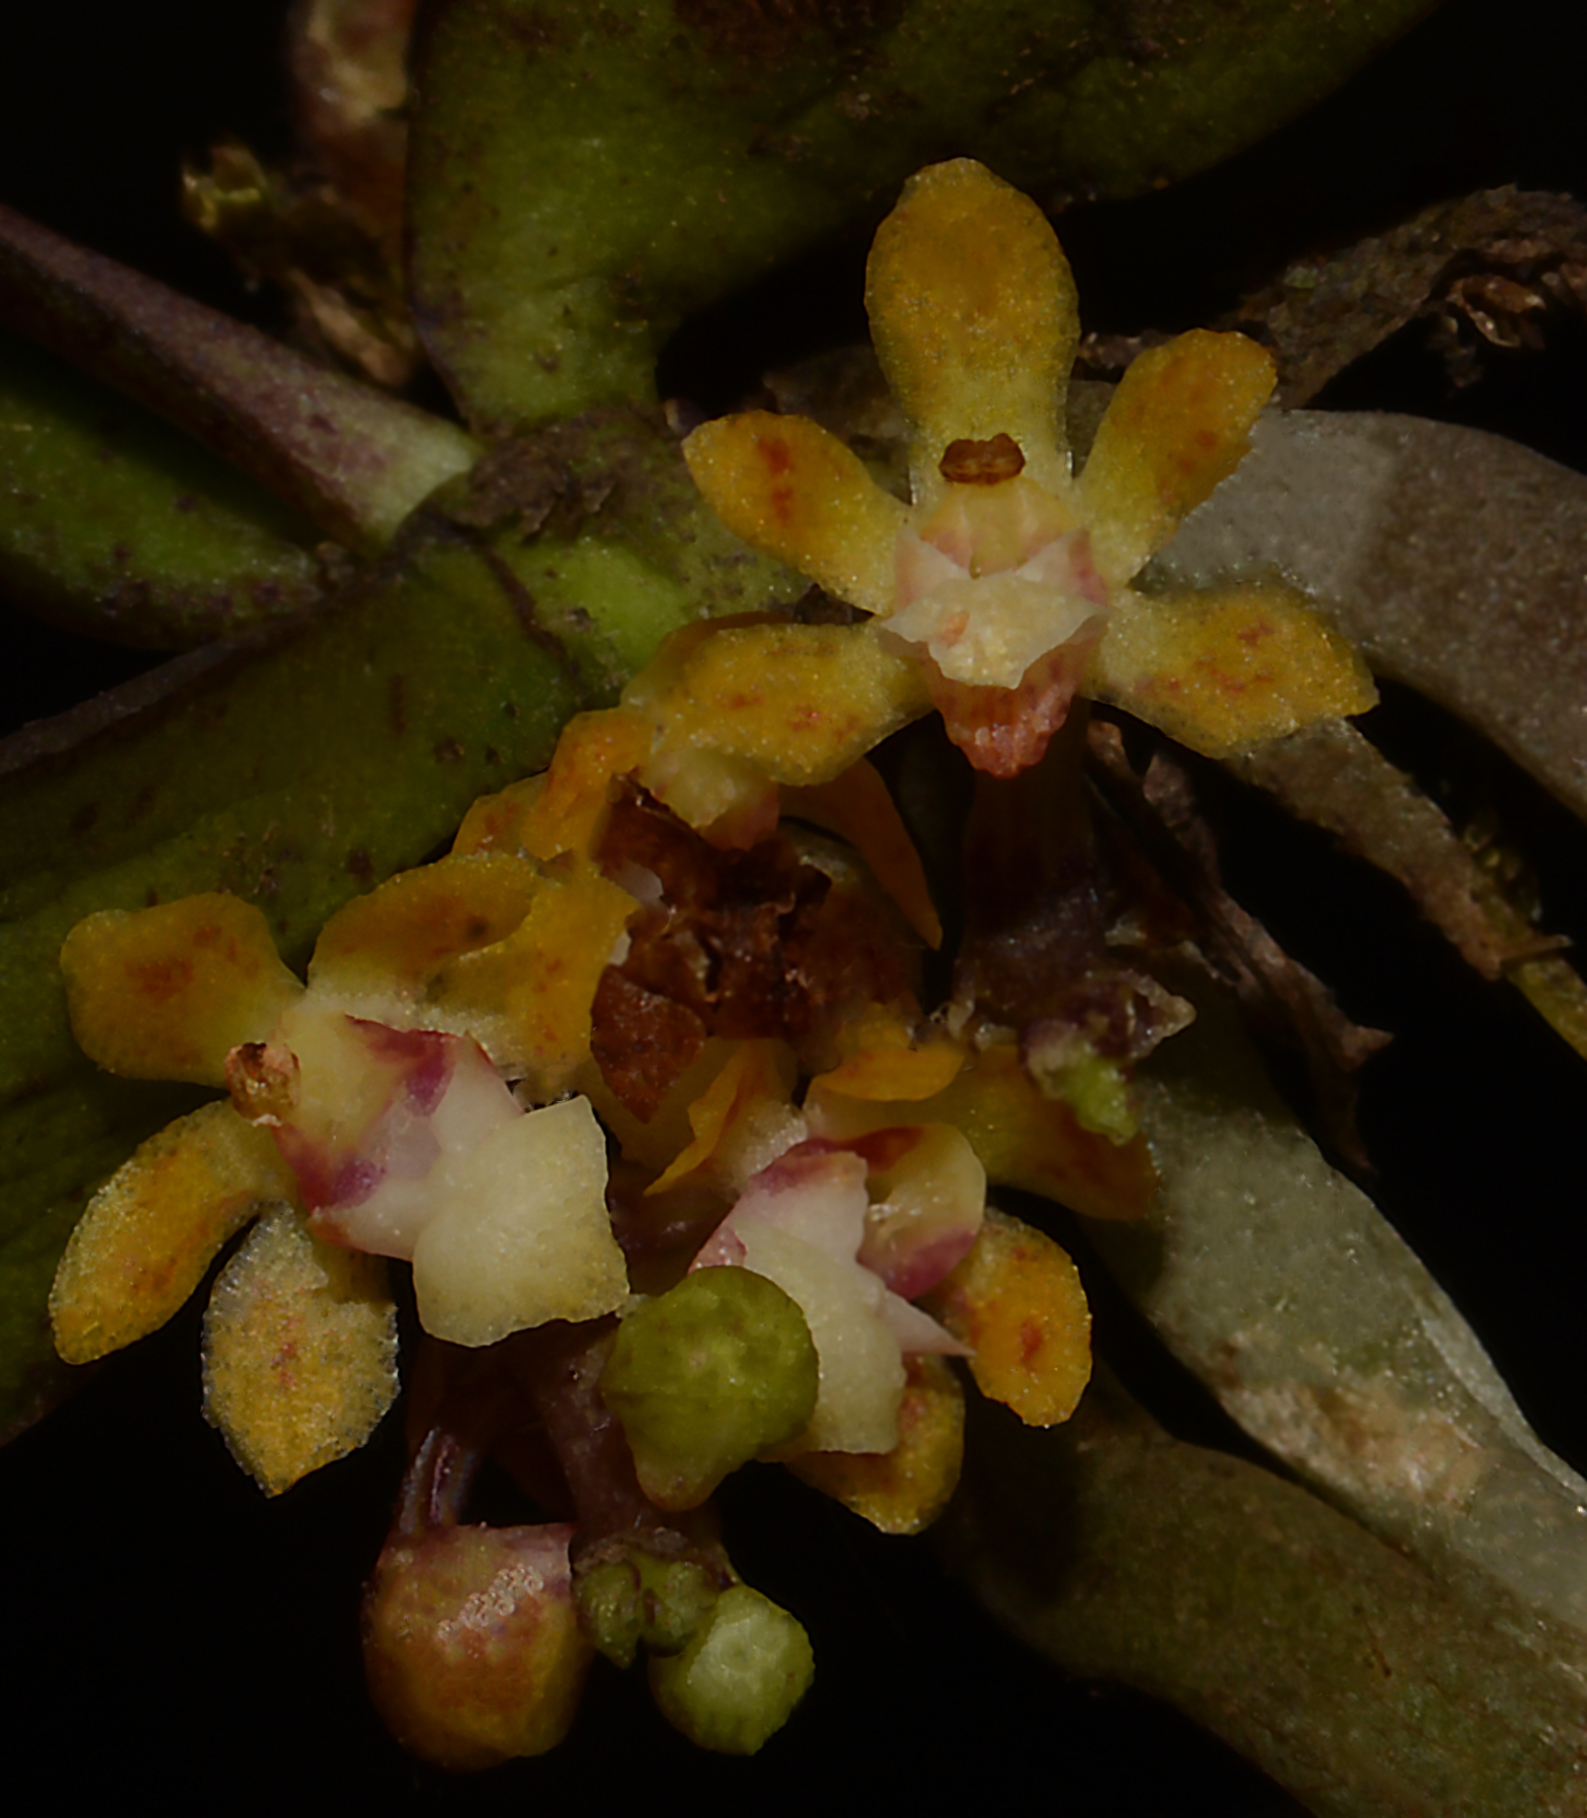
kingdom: Plantae
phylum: Tracheophyta
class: Liliopsida
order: Asparagales
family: Orchidaceae
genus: Smithsonia
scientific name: Smithsonia straminea
